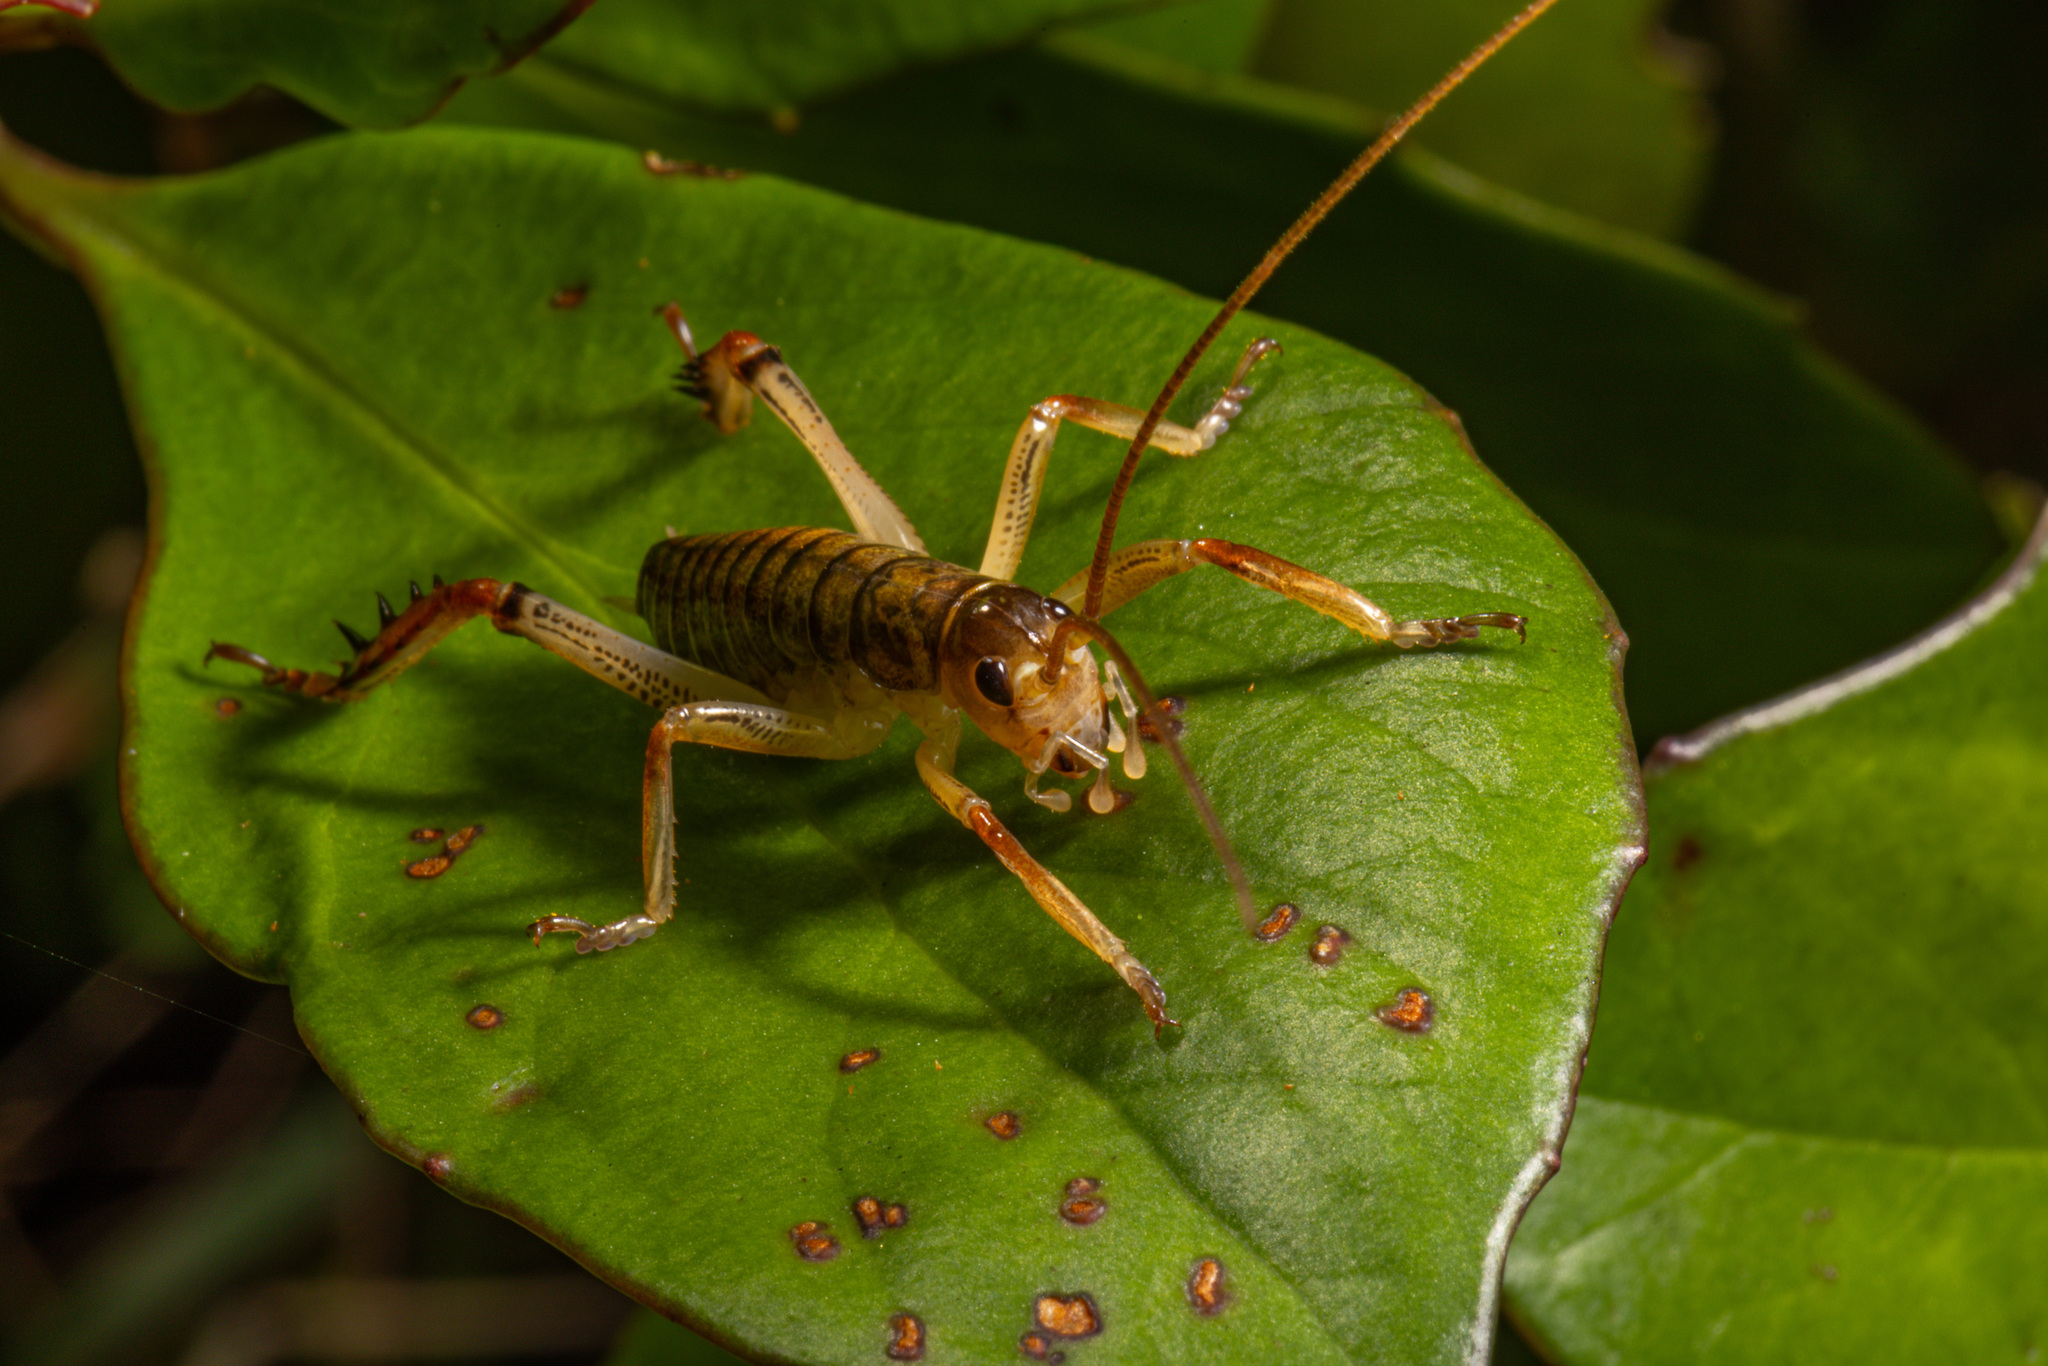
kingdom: Animalia
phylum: Arthropoda
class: Insecta
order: Orthoptera
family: Anostostomatidae
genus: Hemideina
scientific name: Hemideina thoracica
